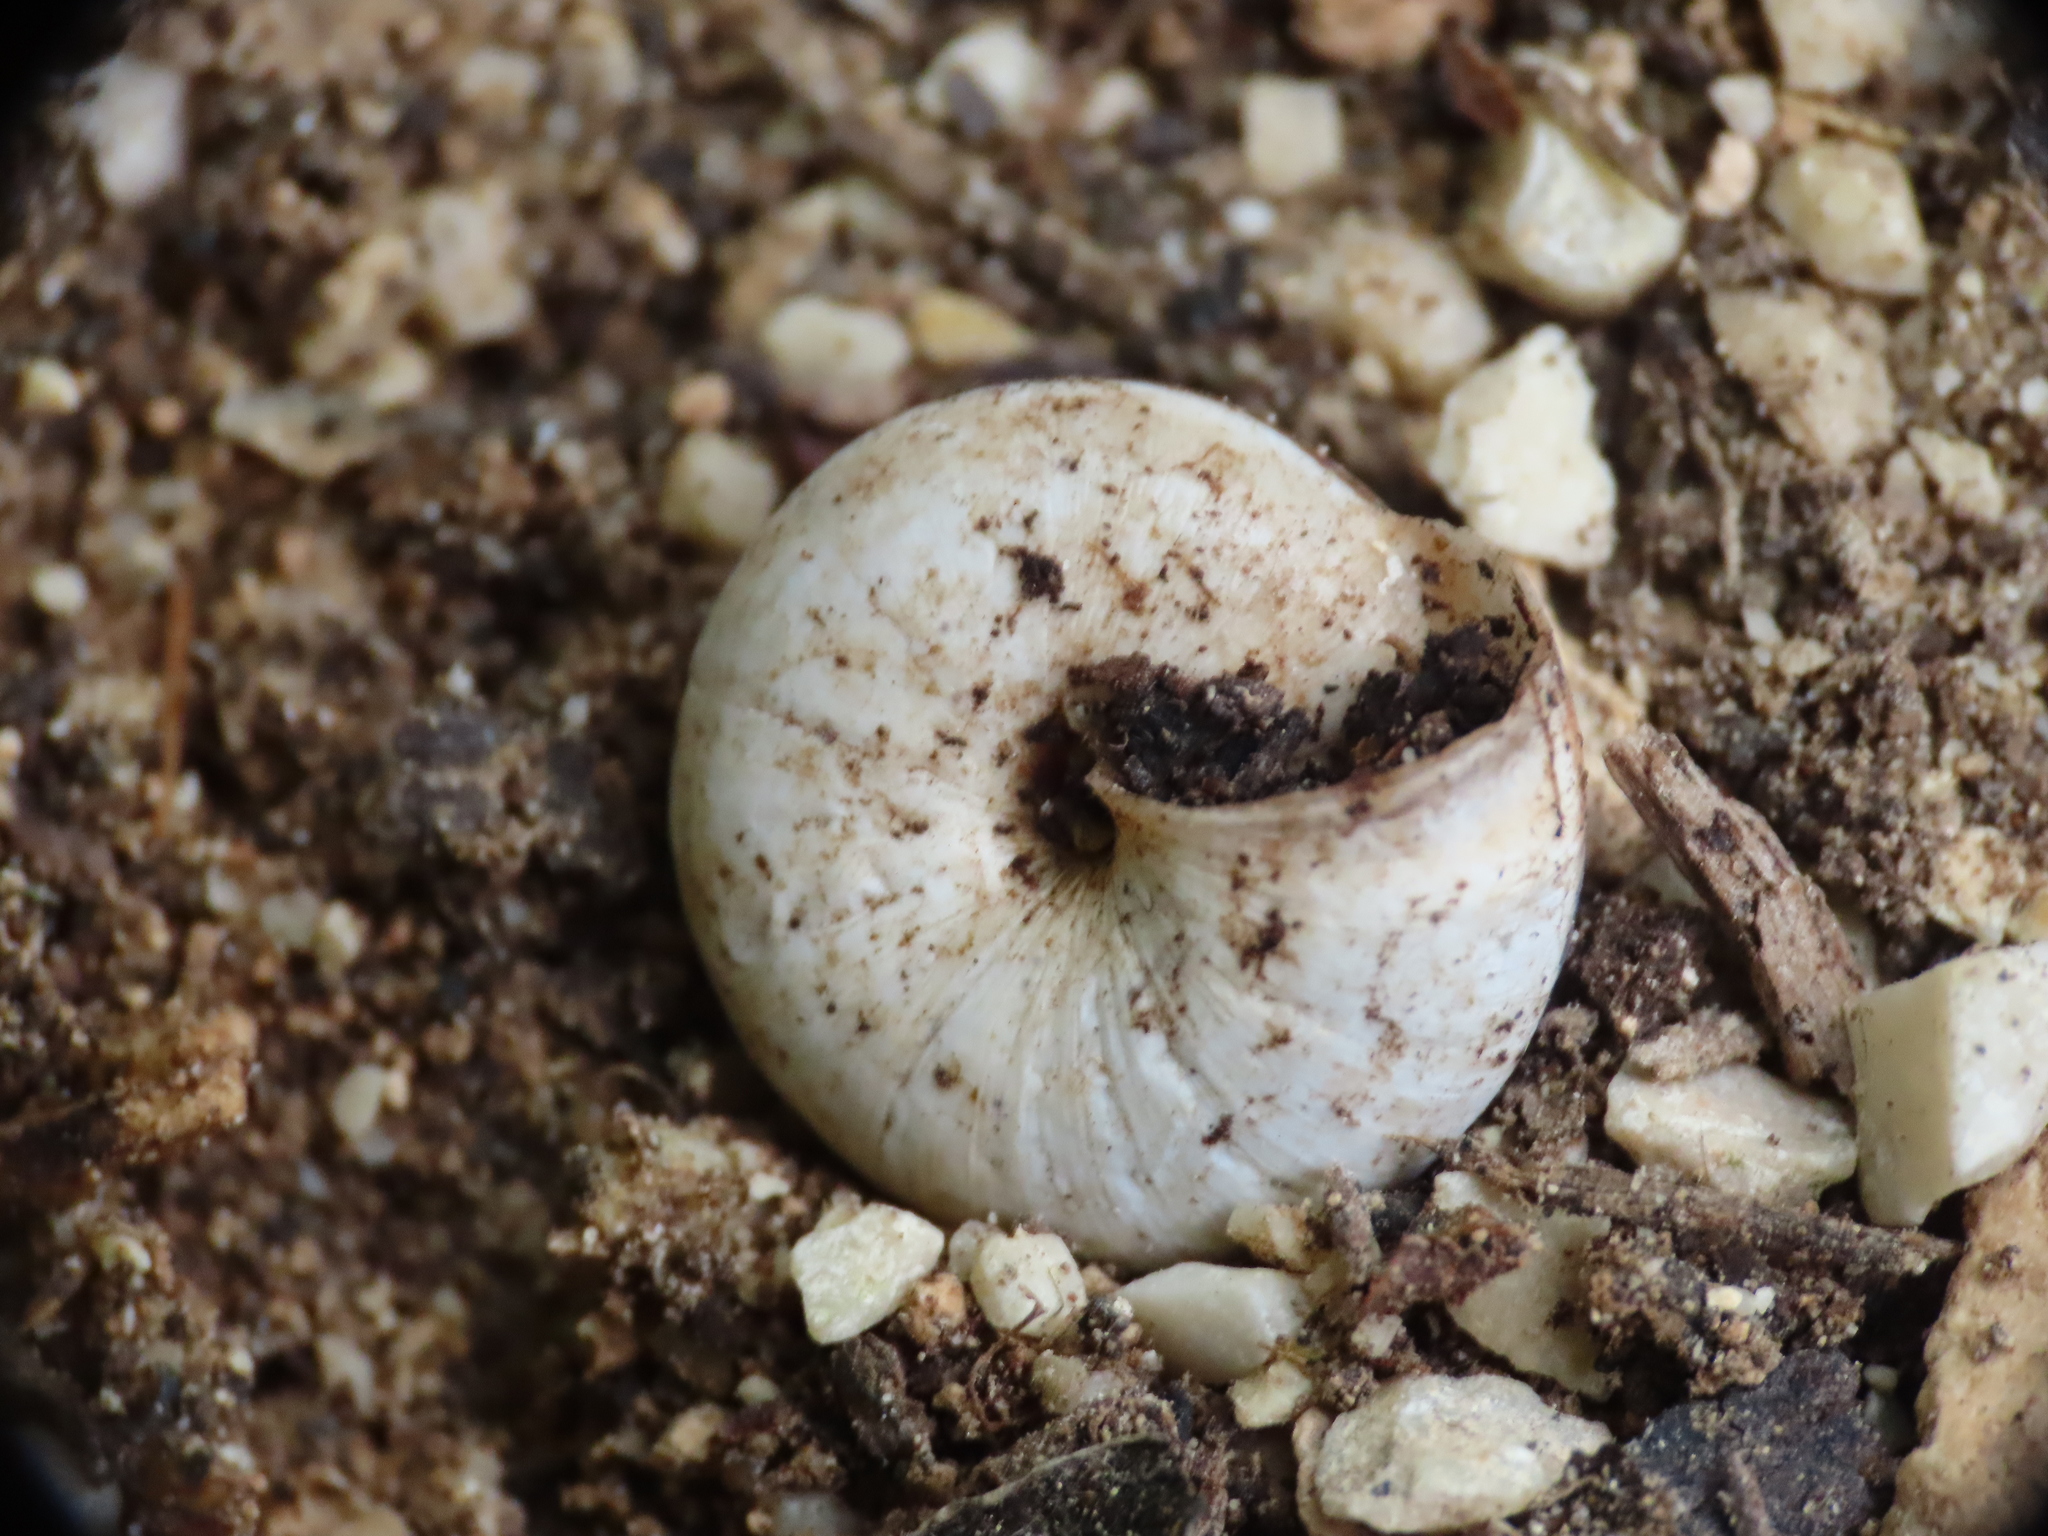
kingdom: Animalia
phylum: Mollusca
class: Gastropoda
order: Stylommatophora
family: Geomitridae
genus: Trochoidea
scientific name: Trochoidea pyramidata
